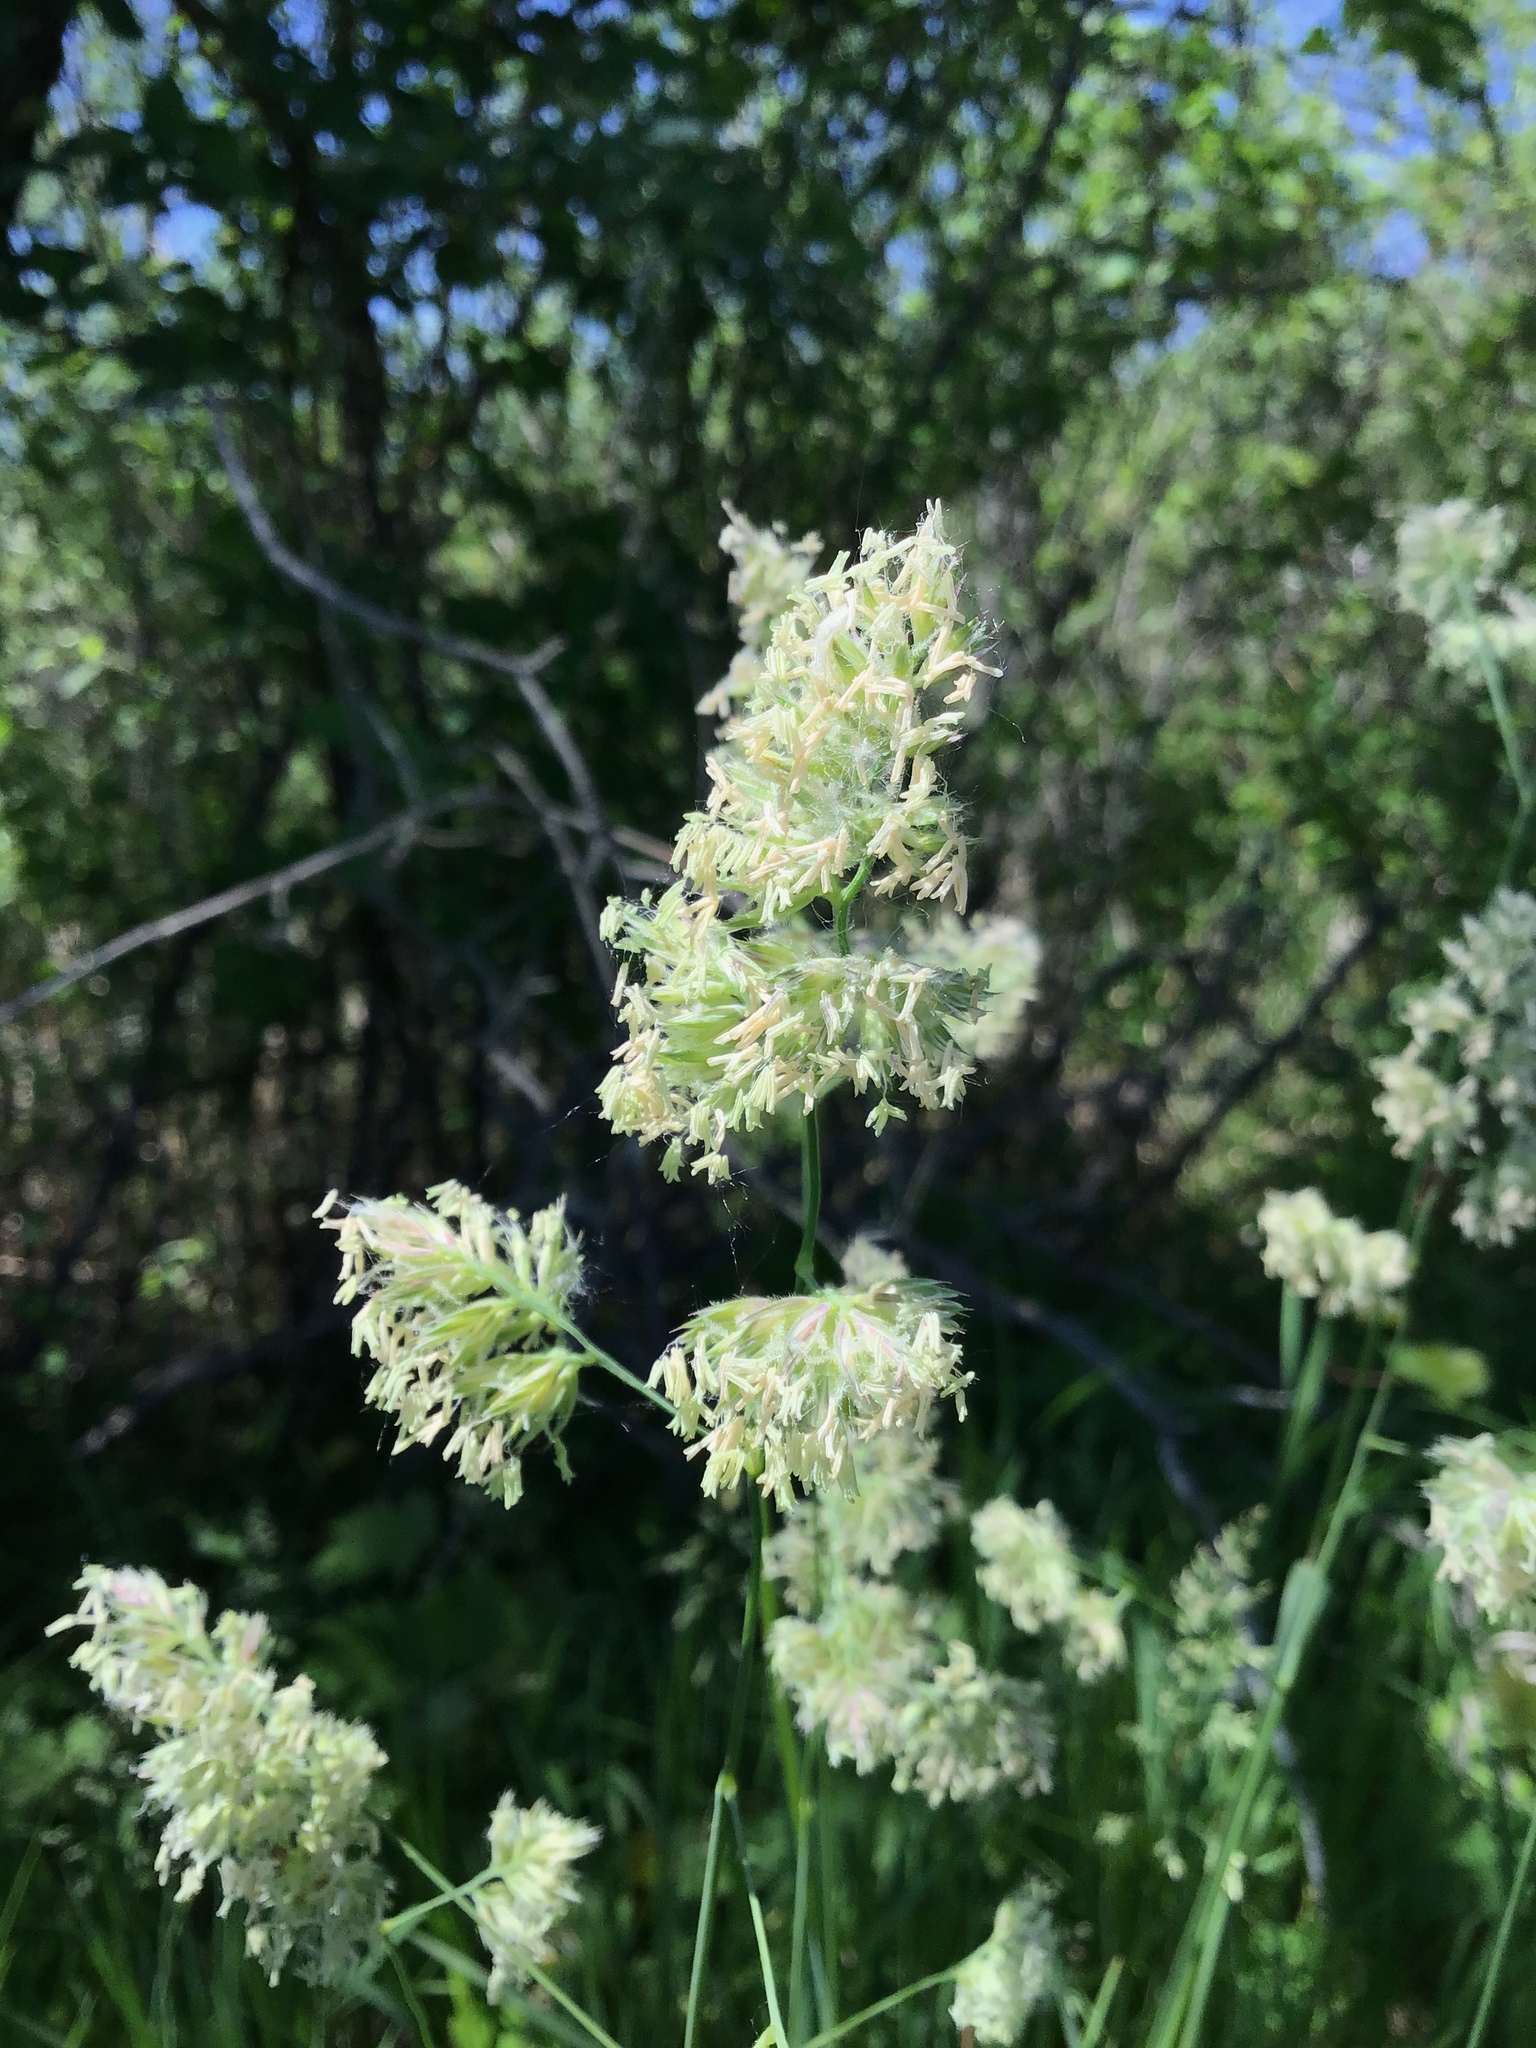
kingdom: Plantae
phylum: Tracheophyta
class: Liliopsida
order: Poales
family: Poaceae
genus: Dactylis
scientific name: Dactylis glomerata
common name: Orchardgrass
